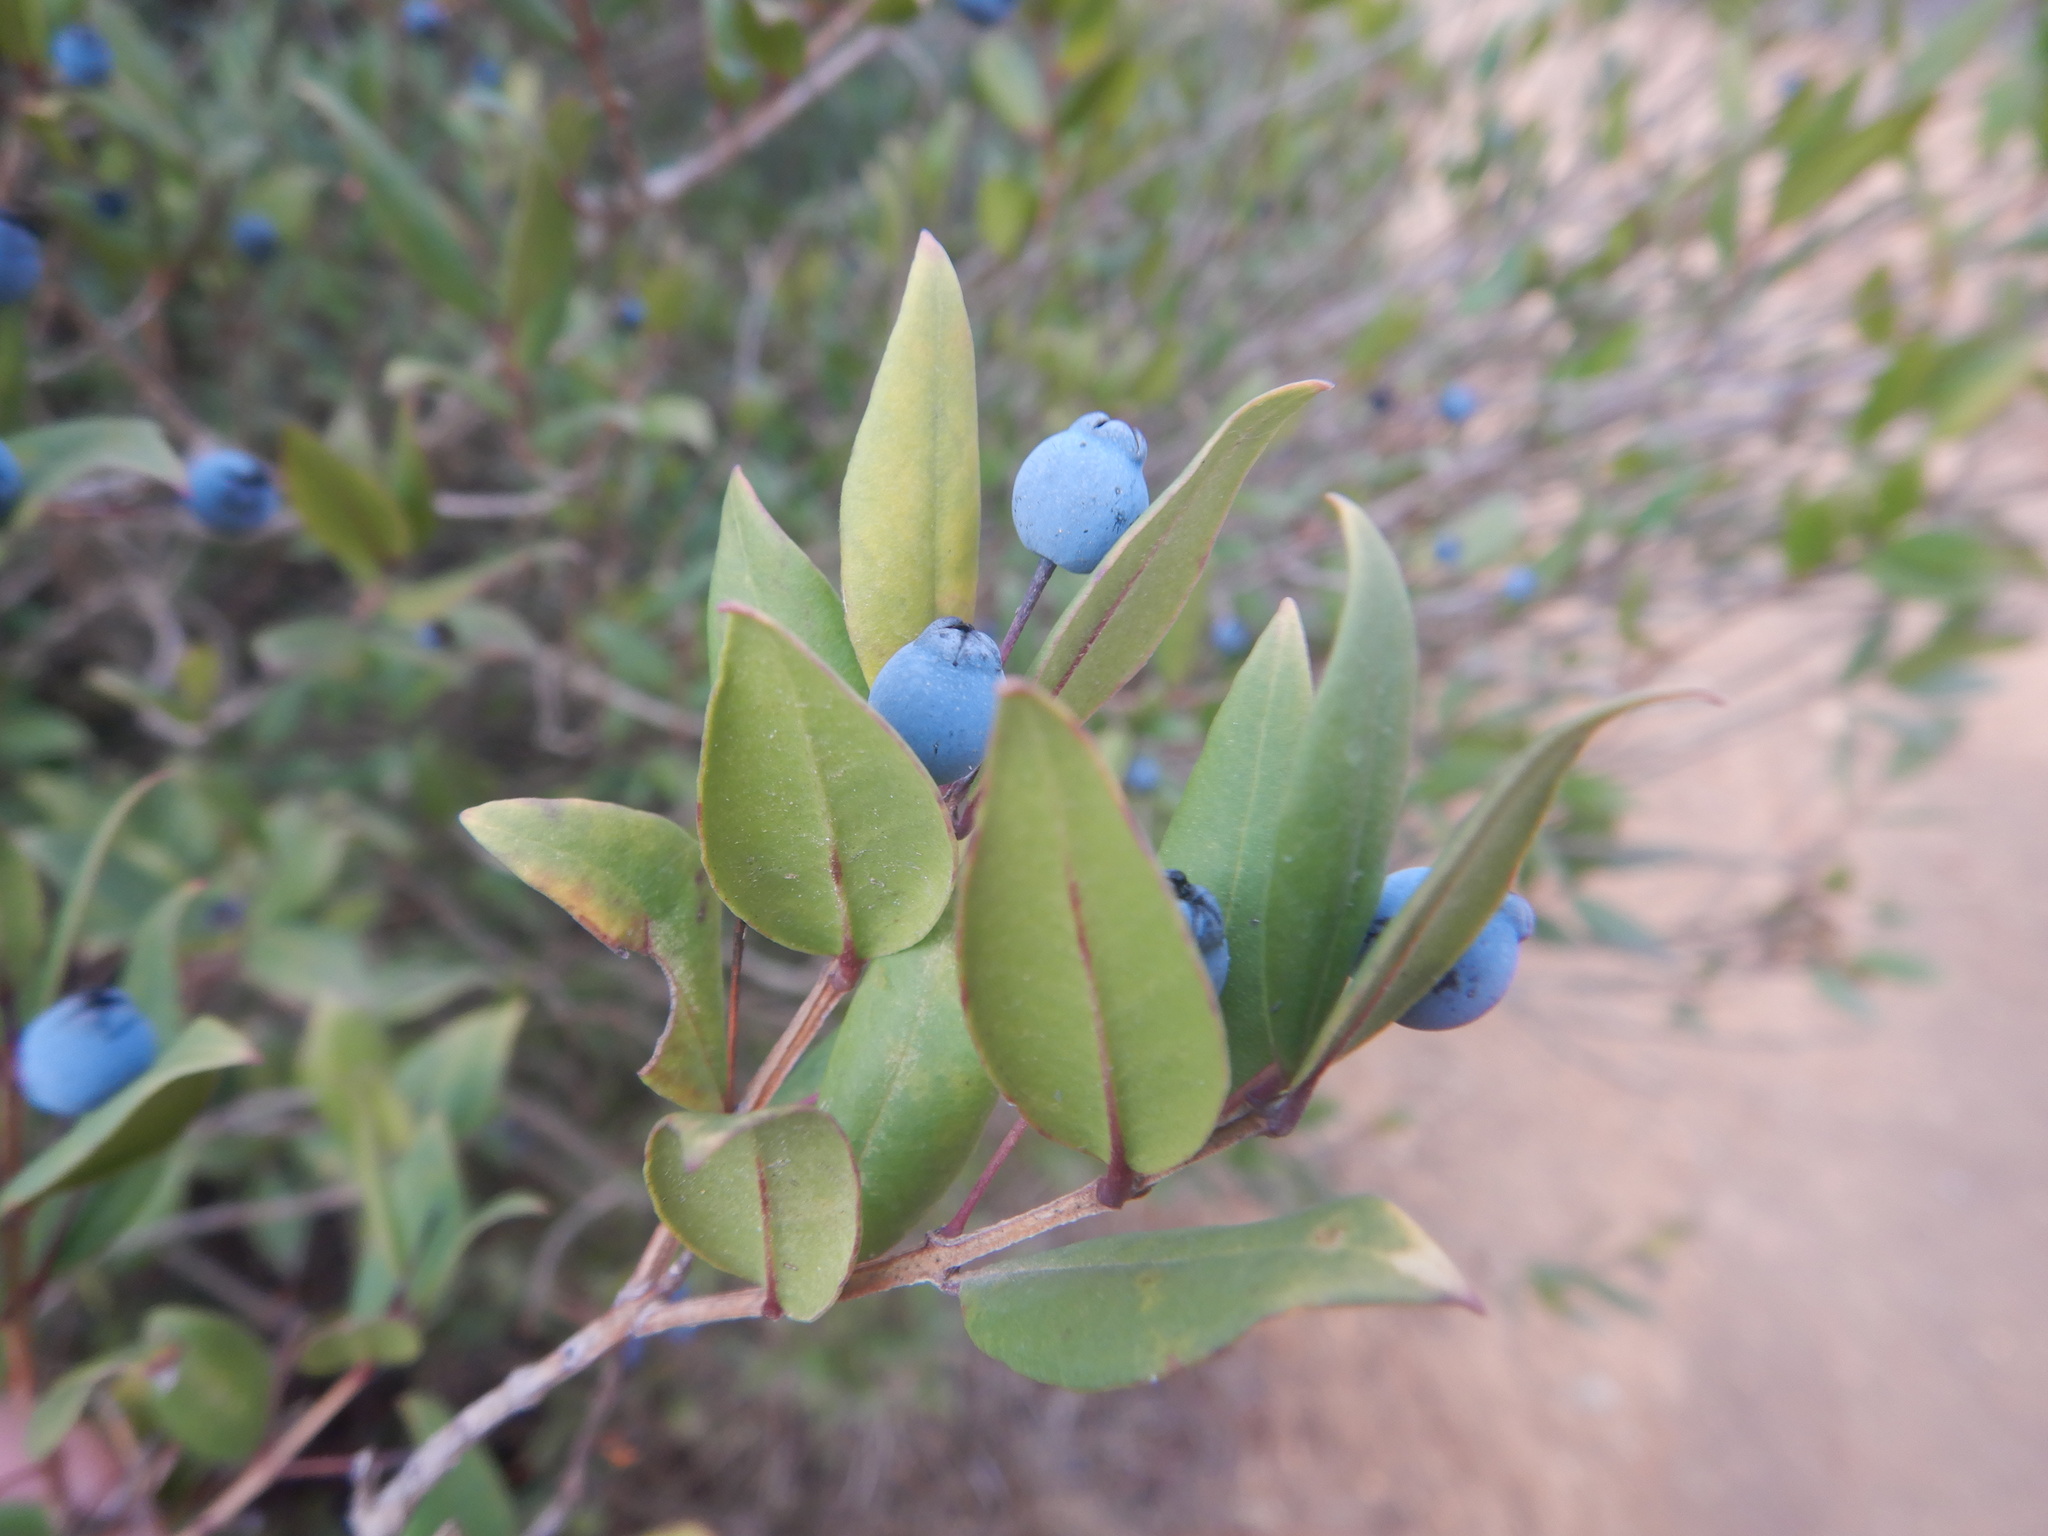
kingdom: Plantae
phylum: Tracheophyta
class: Magnoliopsida
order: Myrtales
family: Myrtaceae
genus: Myrtus
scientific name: Myrtus communis
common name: Myrtle
